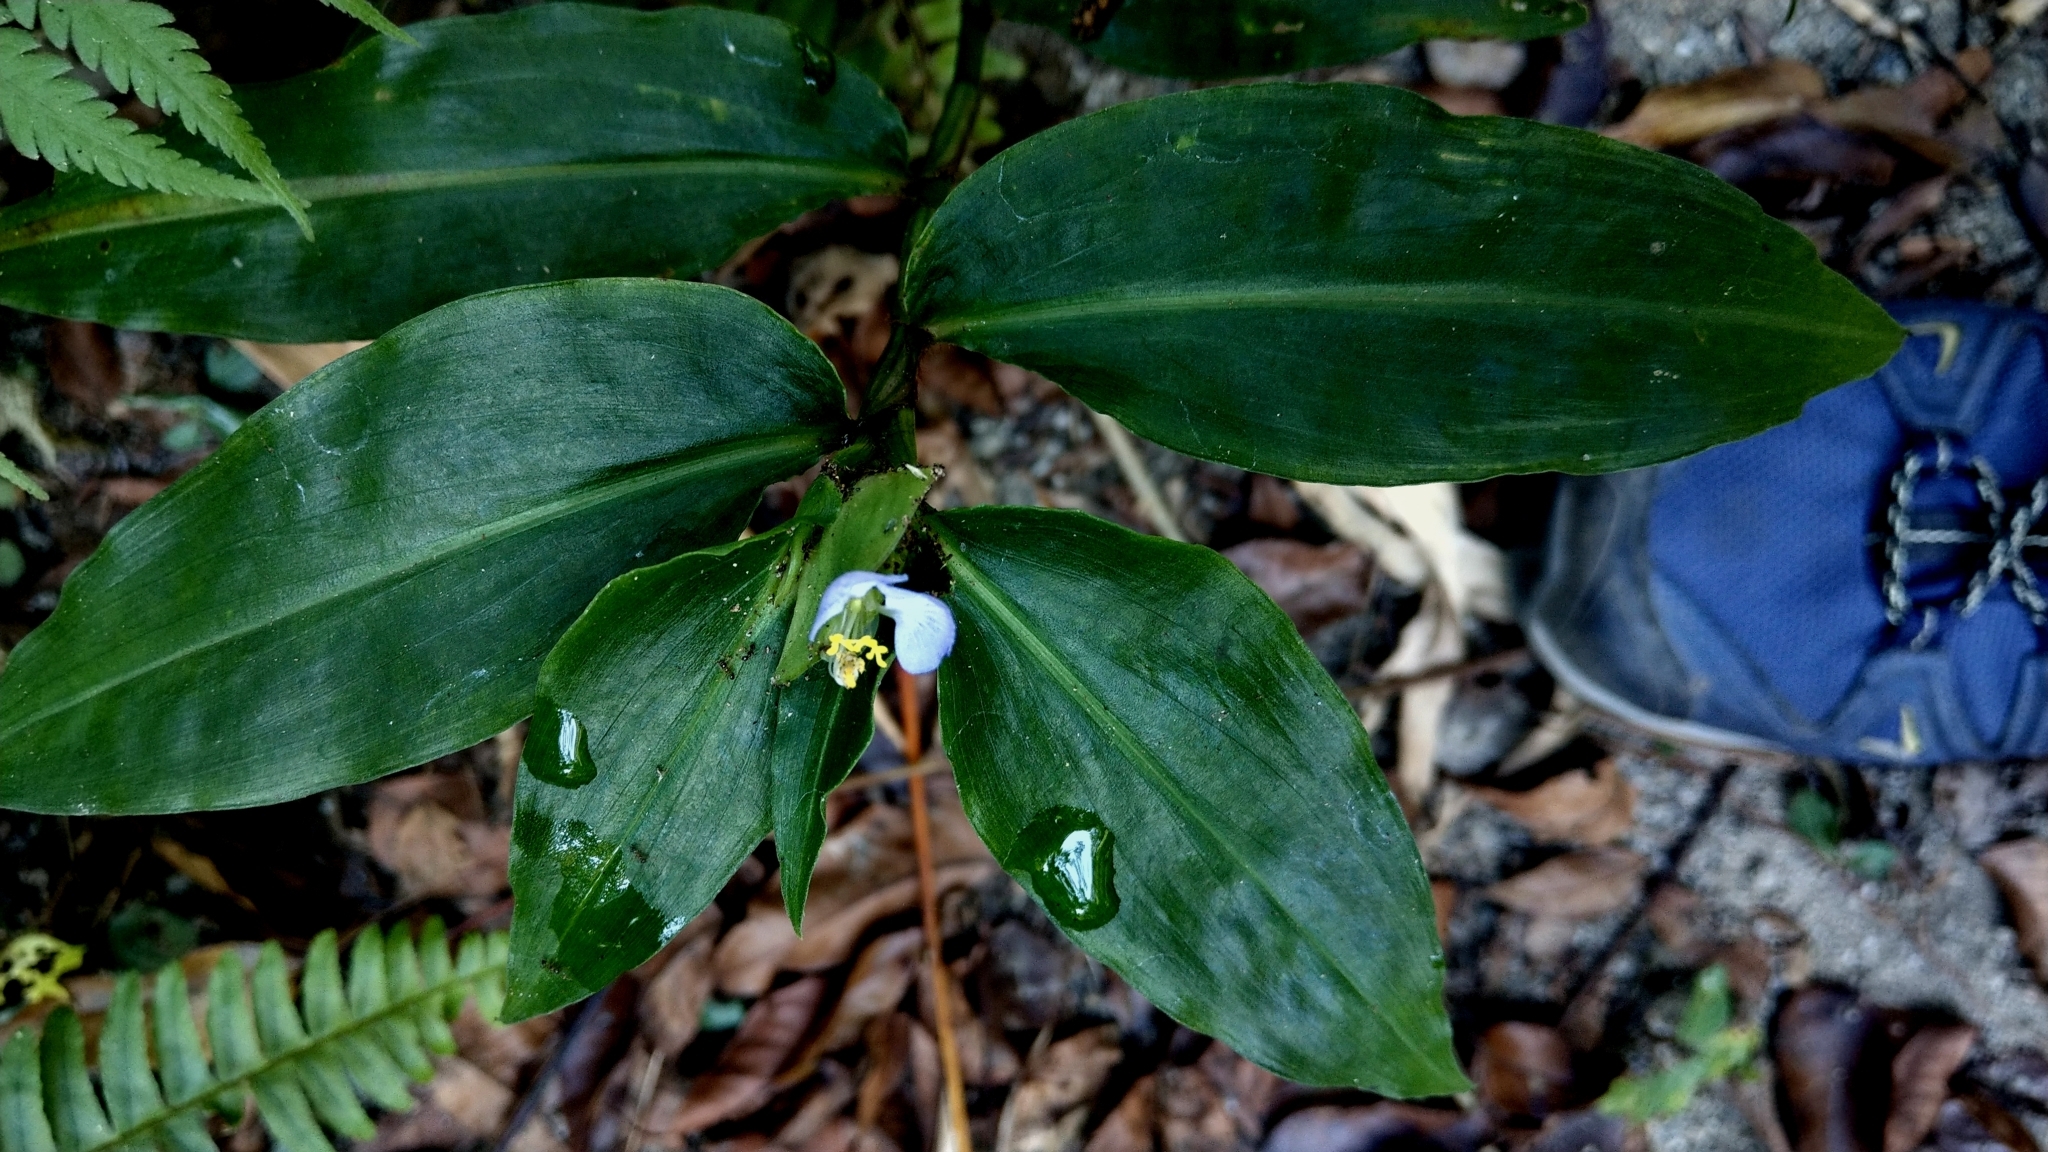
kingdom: Plantae
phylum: Tracheophyta
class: Liliopsida
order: Commelinales
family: Commelinaceae
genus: Commelina
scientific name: Commelina paludosa
